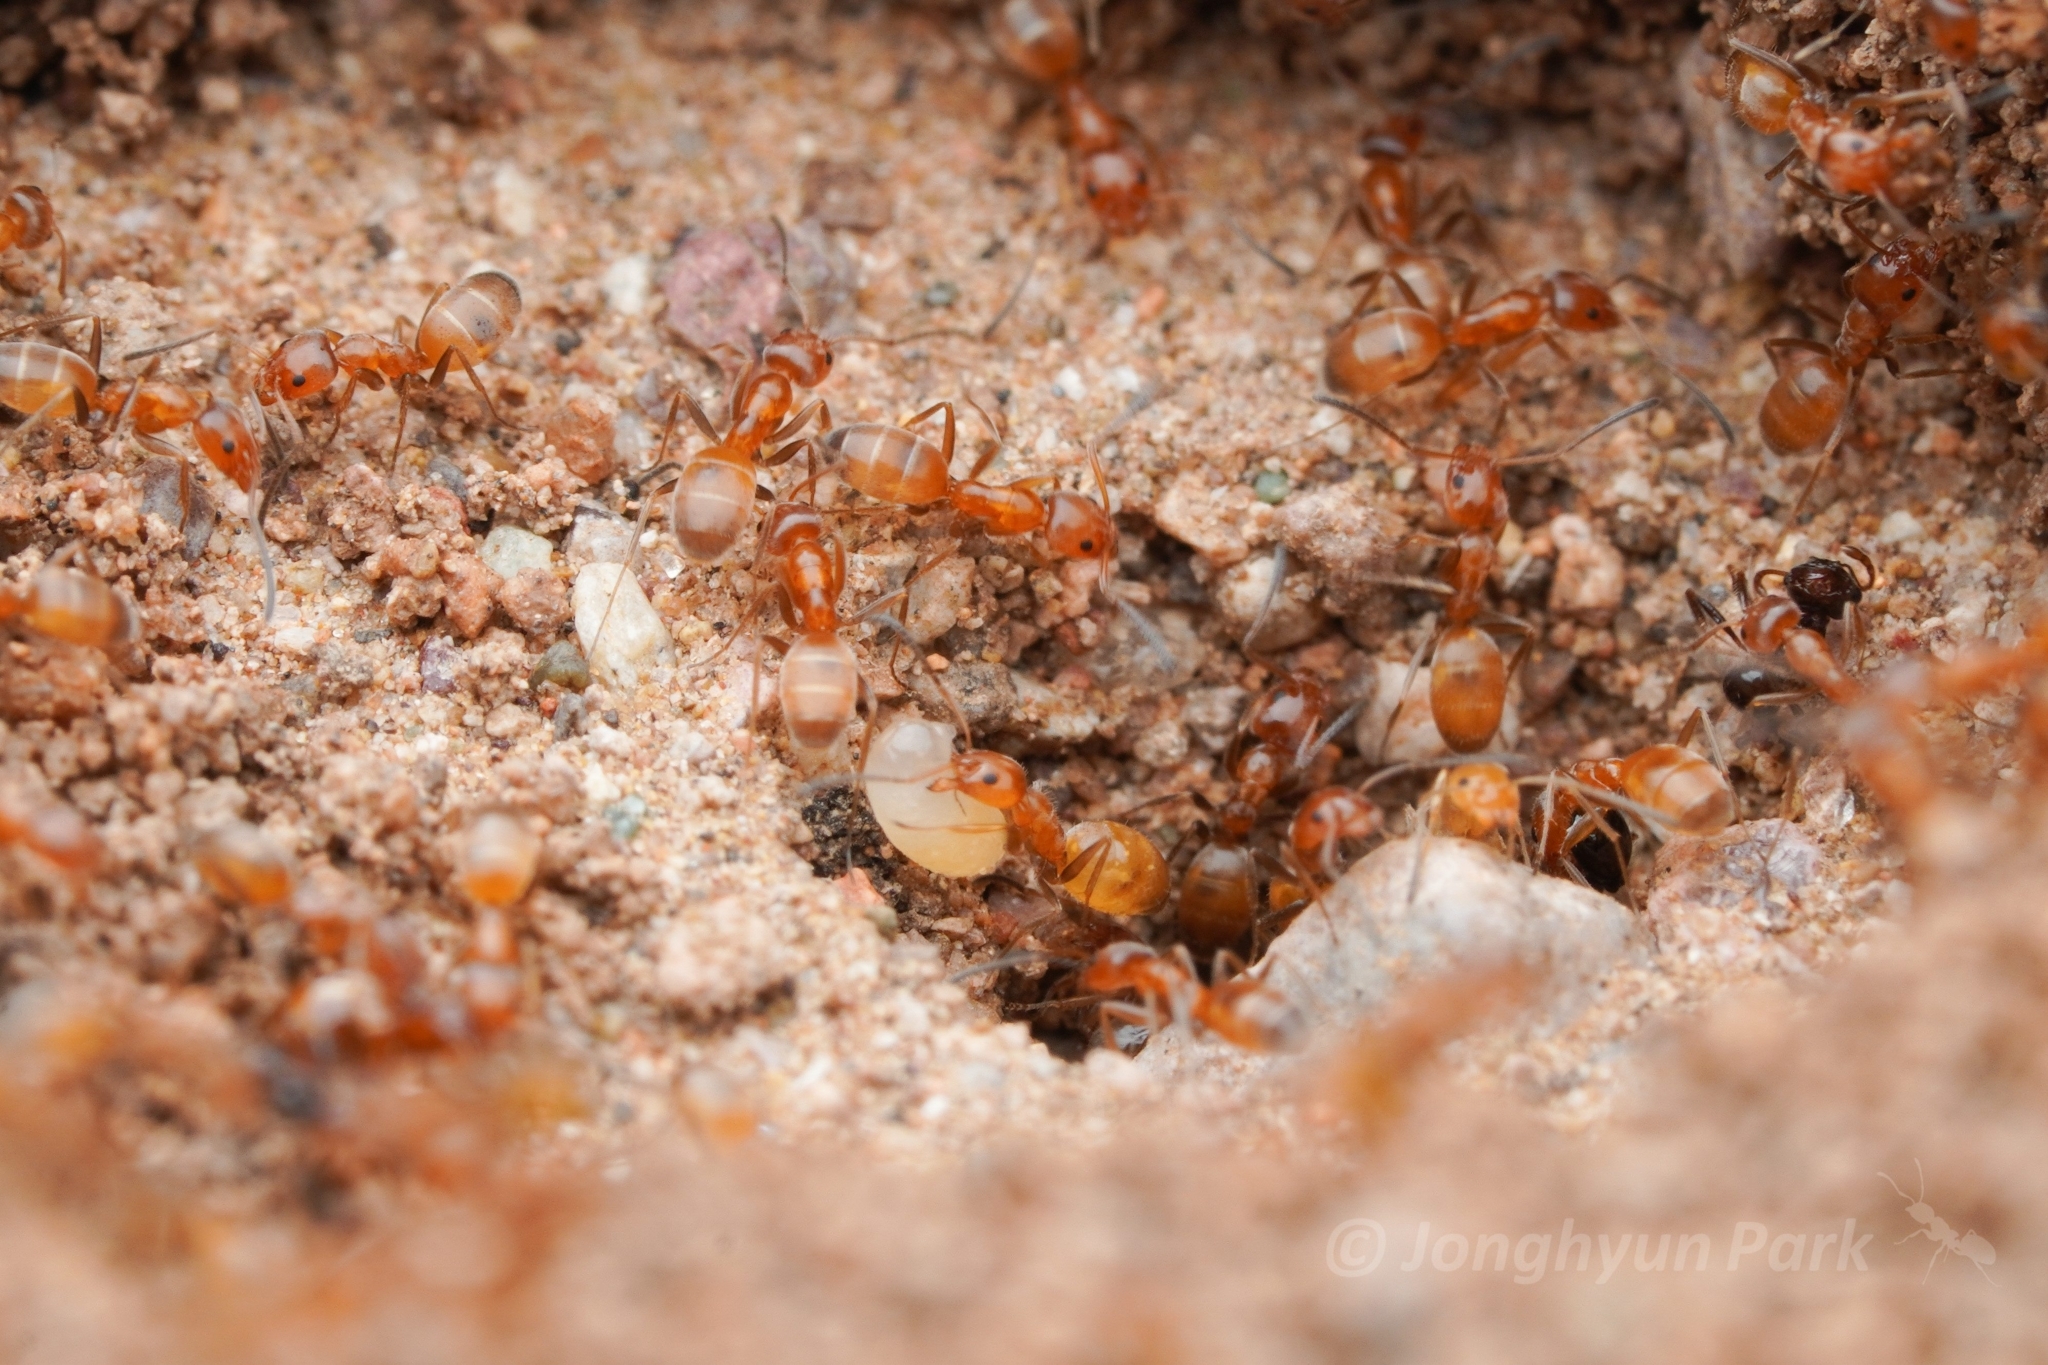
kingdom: Animalia
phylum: Arthropoda
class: Insecta
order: Hymenoptera
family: Formicidae
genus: Forelius
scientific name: Forelius mccooki
